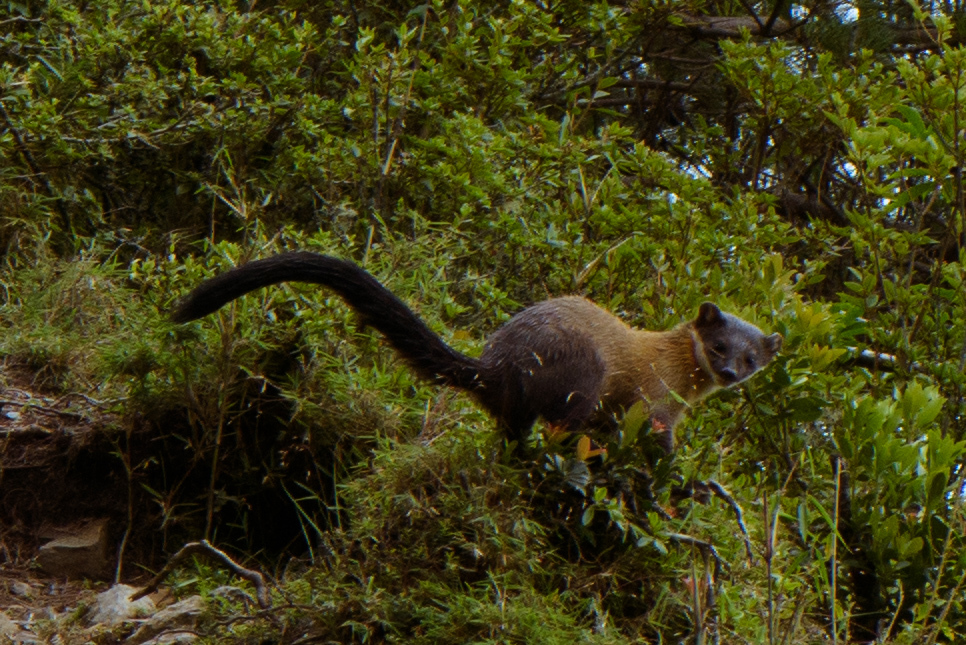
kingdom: Animalia
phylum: Chordata
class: Mammalia
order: Carnivora
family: Mustelidae
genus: Martes
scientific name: Martes flavigula
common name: Yellow-throated marten
